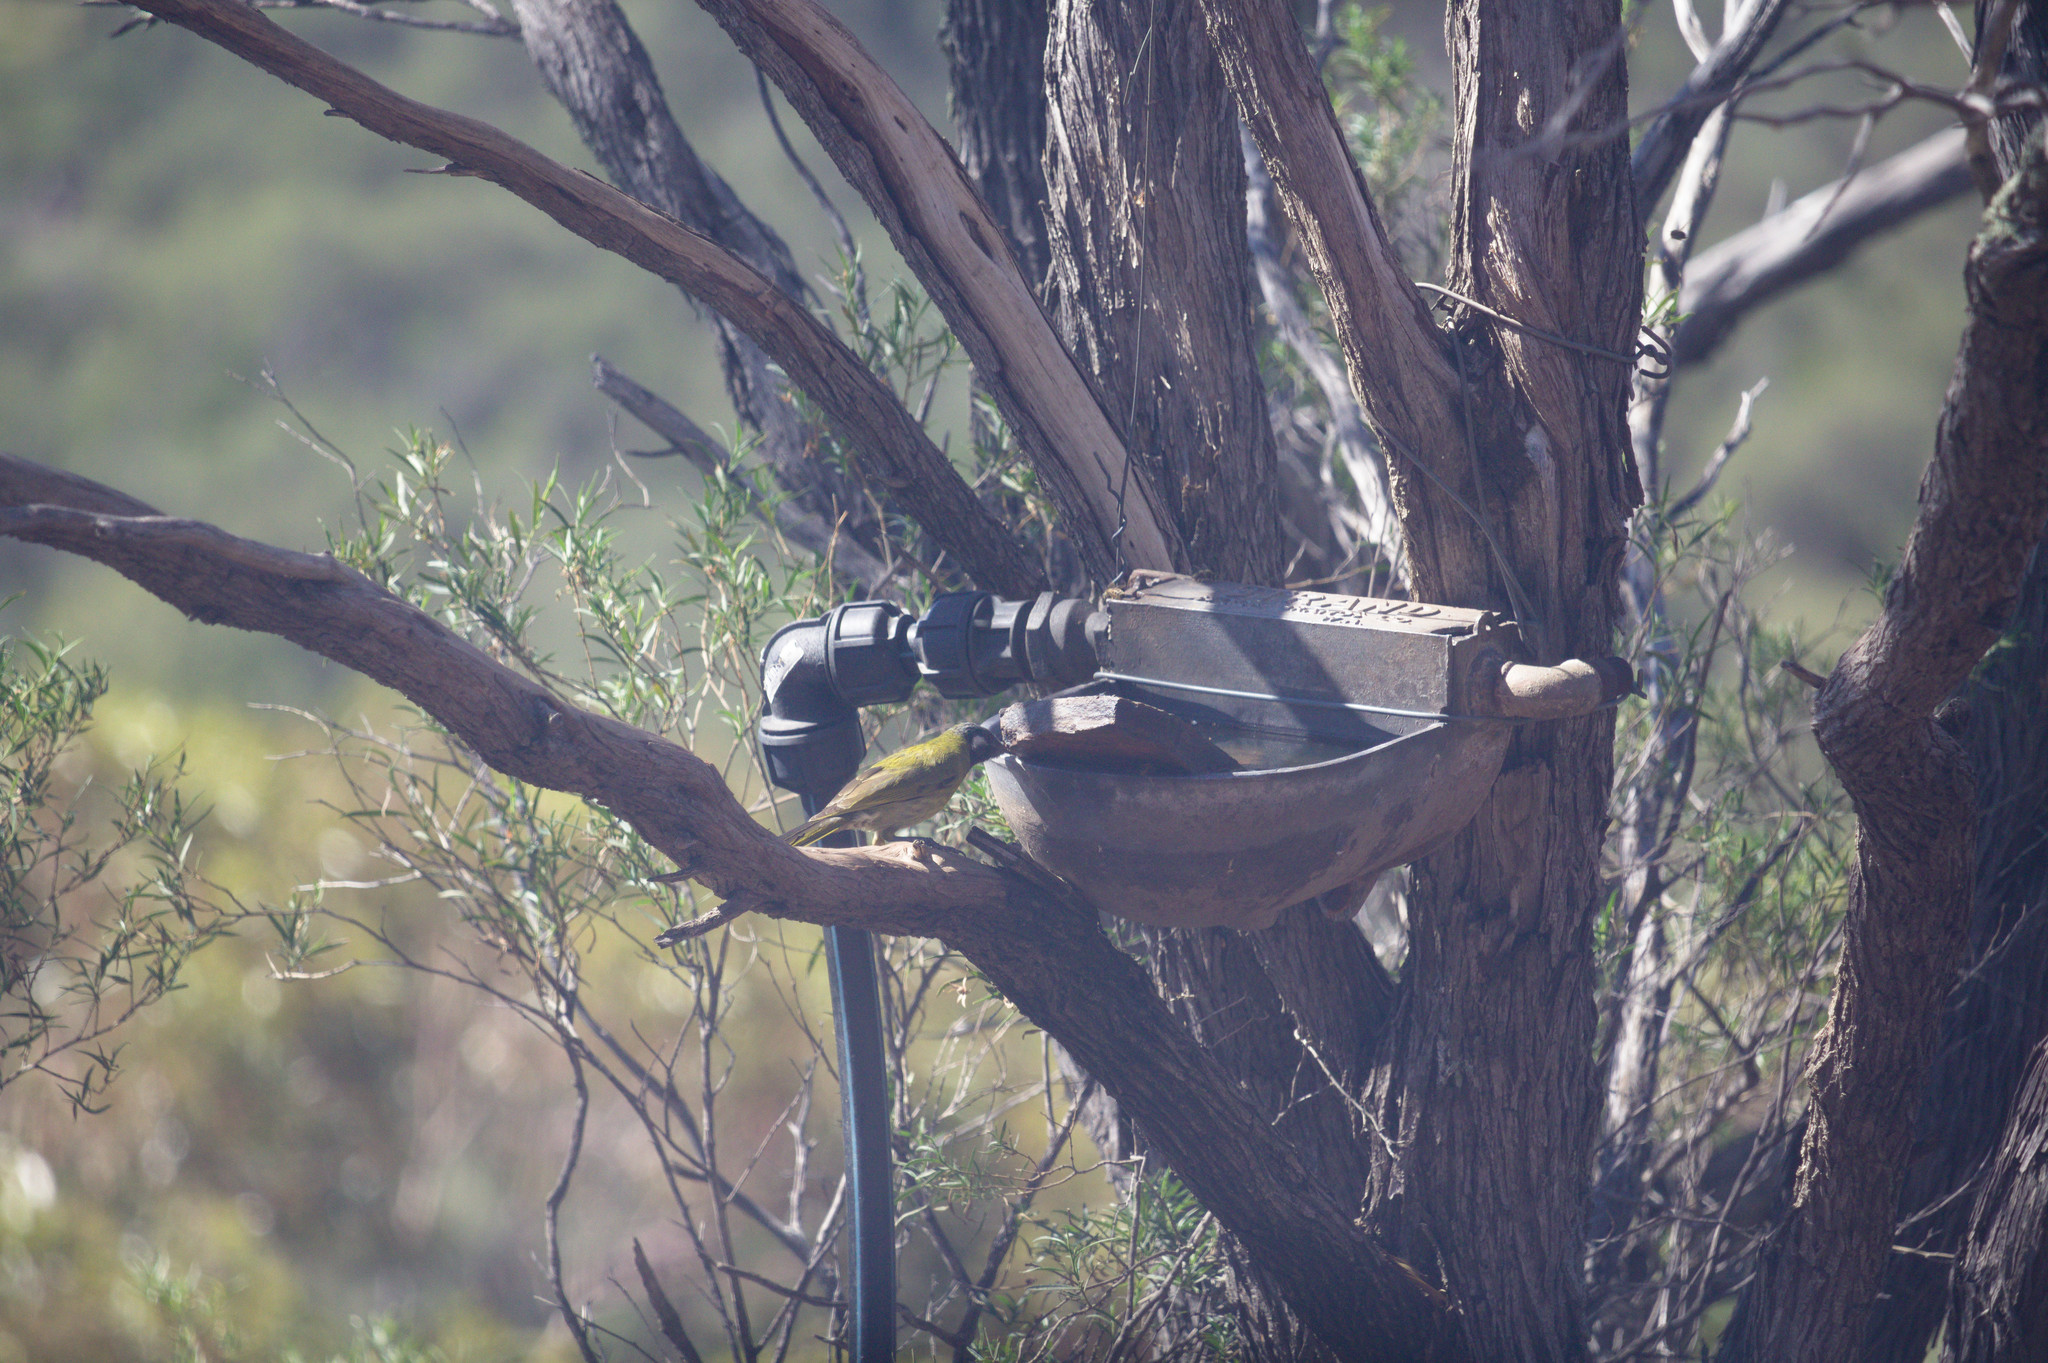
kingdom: Animalia
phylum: Chordata
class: Aves
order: Passeriformes
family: Meliphagidae
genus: Nesoptilotis
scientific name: Nesoptilotis leucotis
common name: White-eared honeyeater
